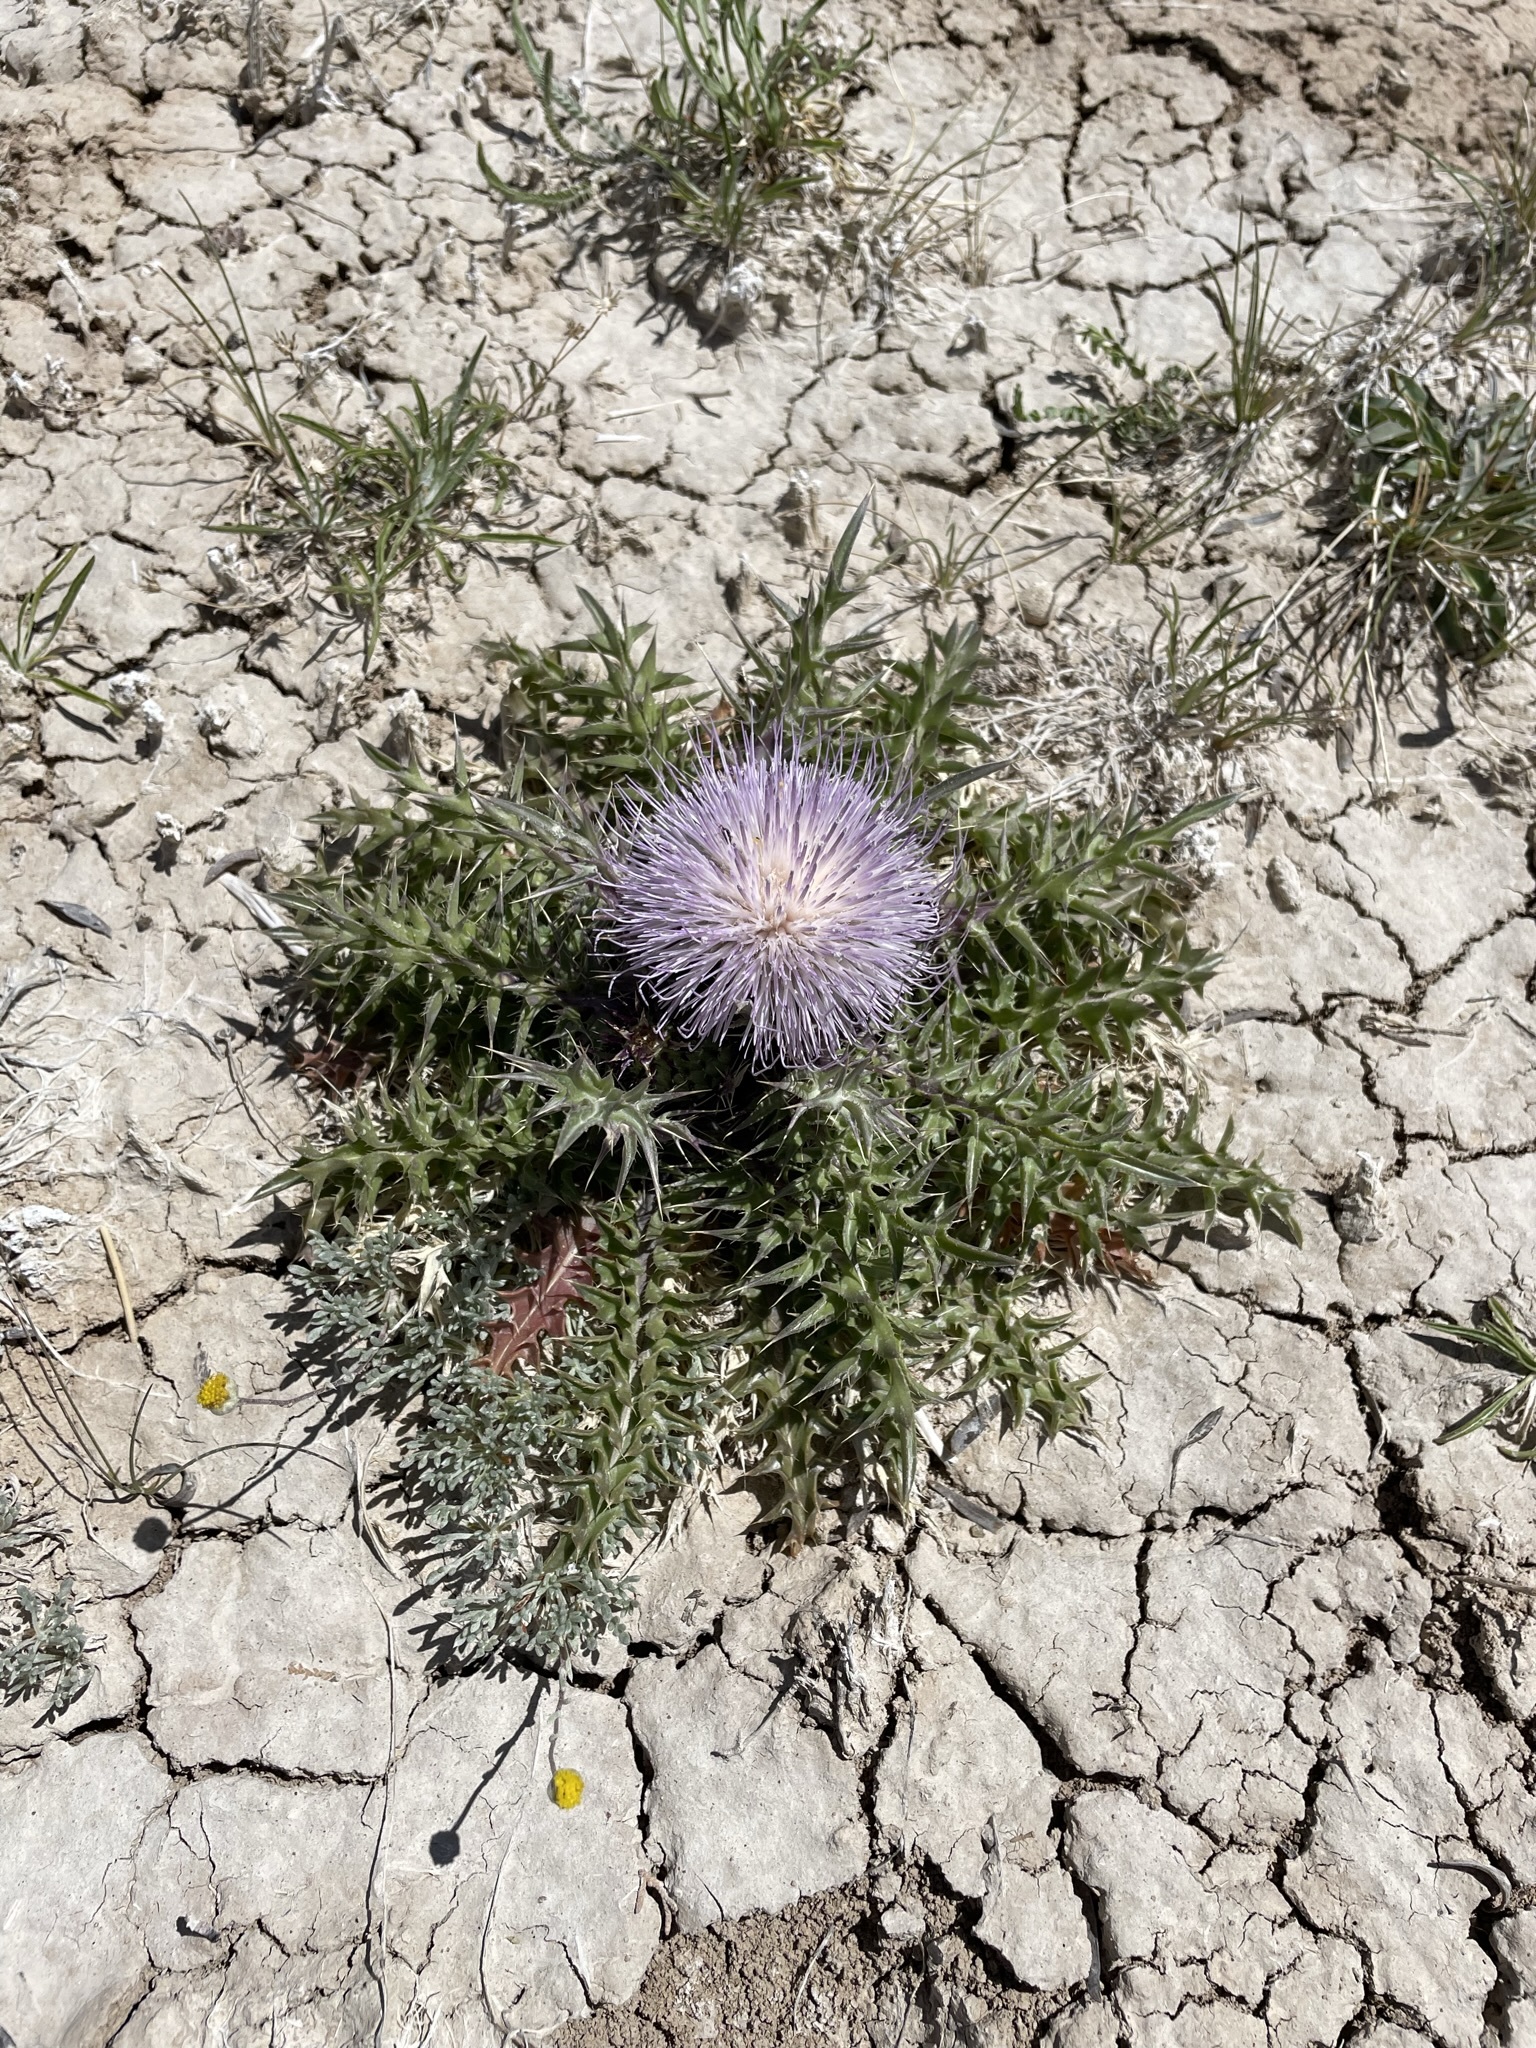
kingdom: Plantae
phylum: Tracheophyta
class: Magnoliopsida
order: Asterales
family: Asteraceae
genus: Cirsium
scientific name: Cirsium scariosum
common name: Meadow thistle
